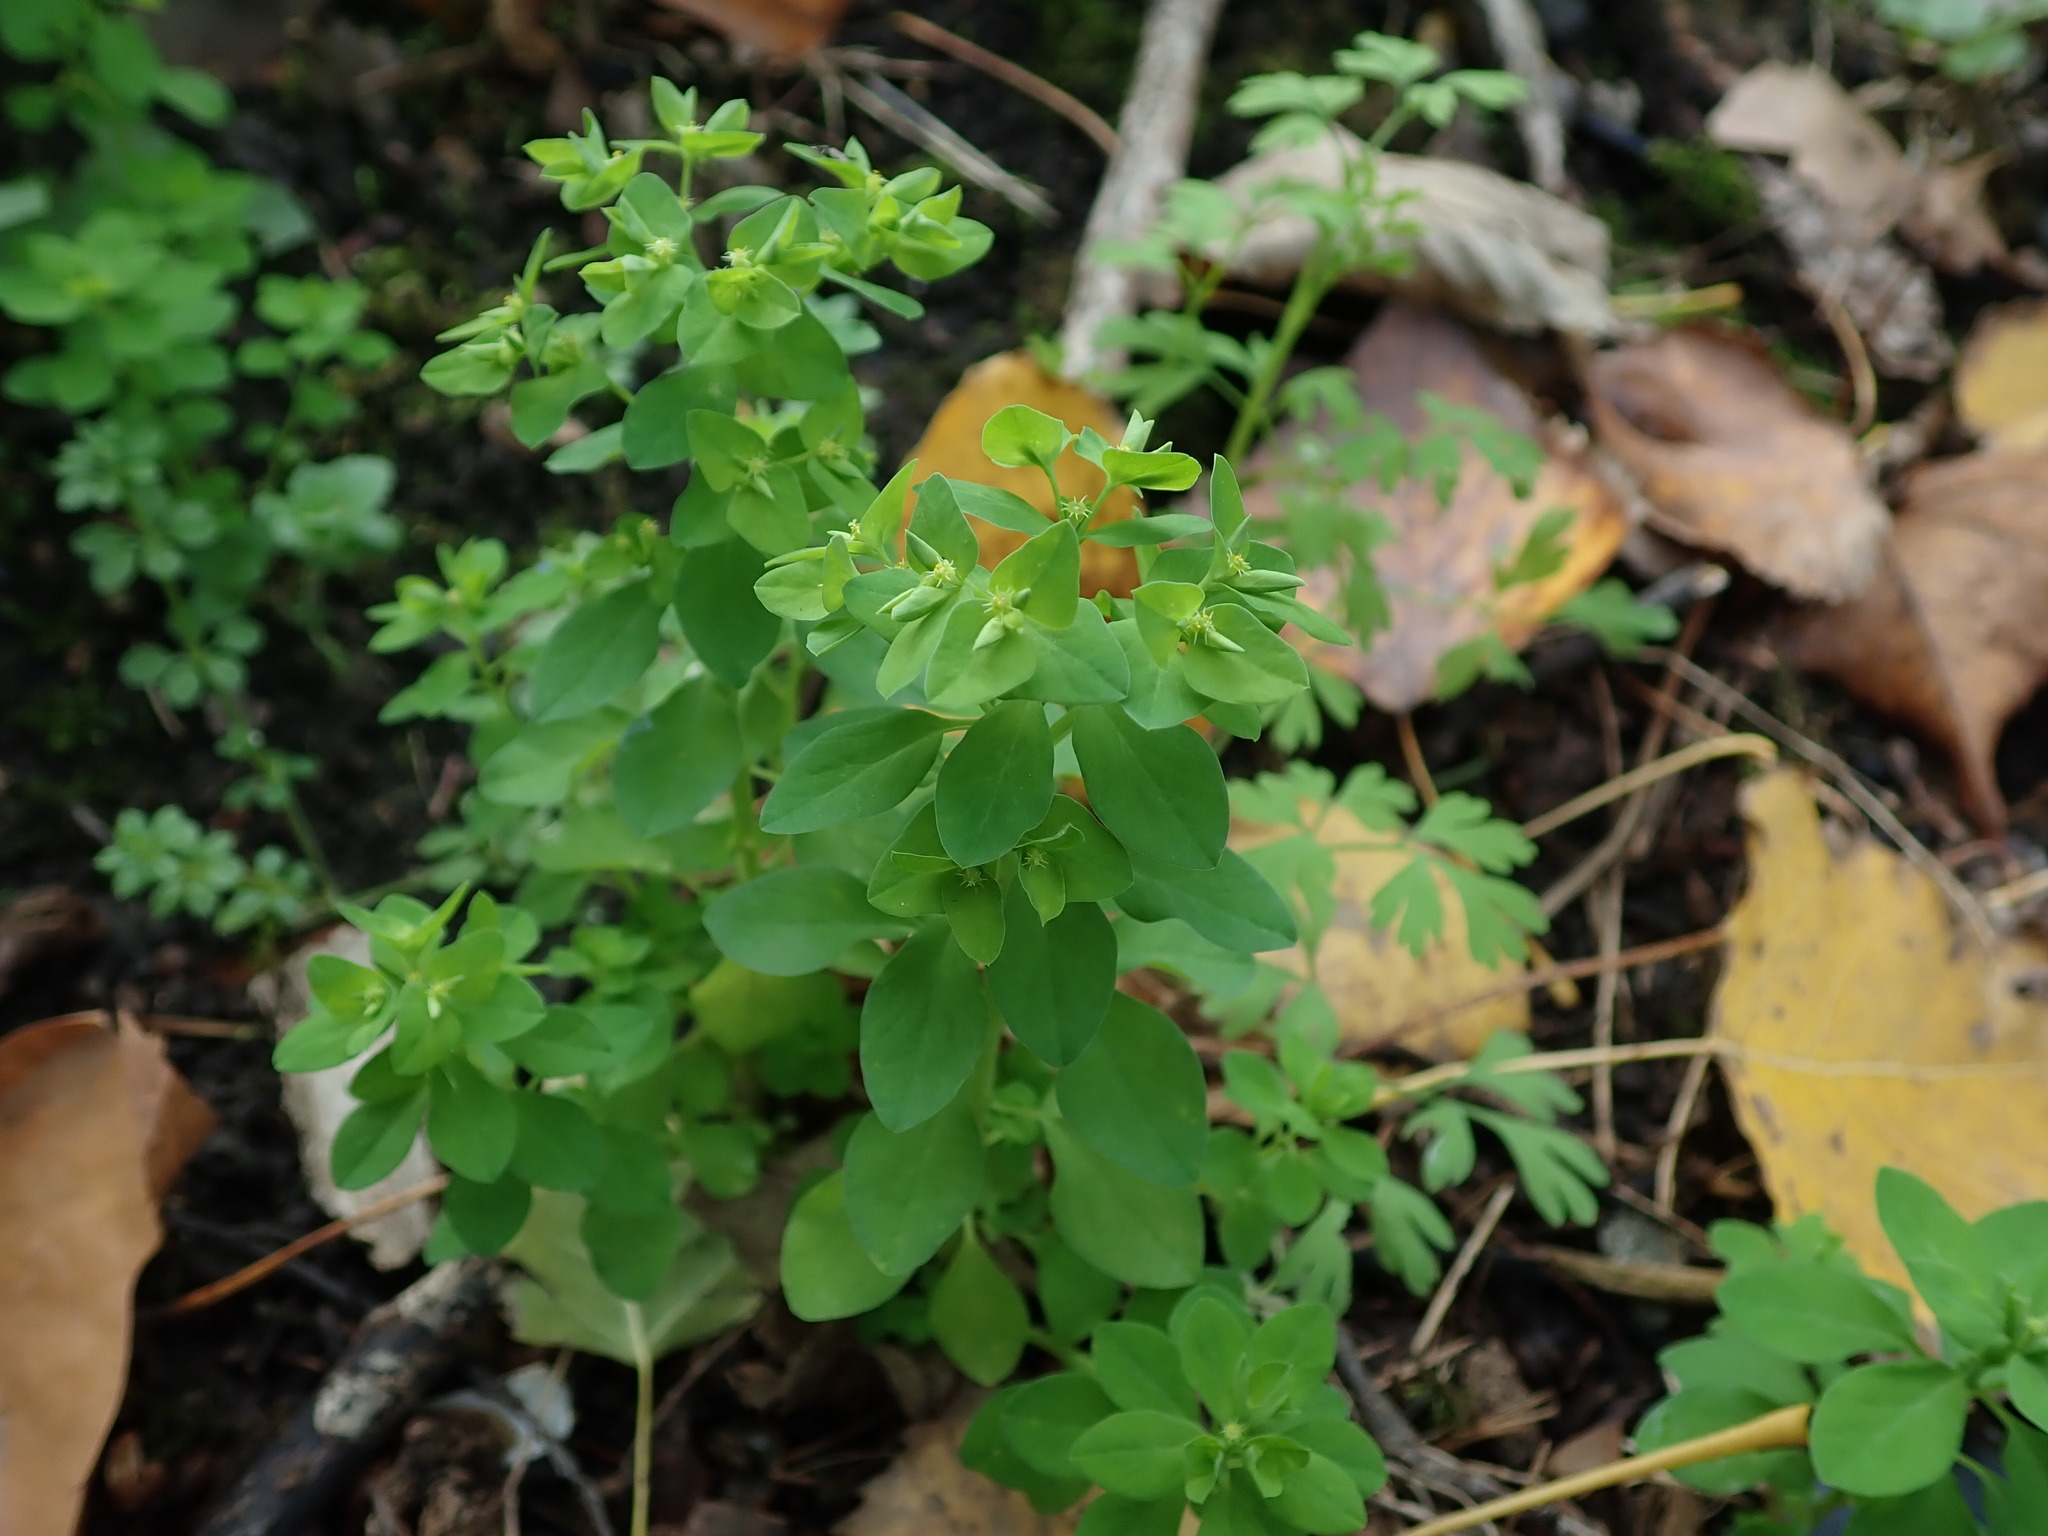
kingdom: Plantae
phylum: Tracheophyta
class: Magnoliopsida
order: Malpighiales
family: Euphorbiaceae
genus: Euphorbia
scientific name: Euphorbia peplus
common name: Petty spurge
